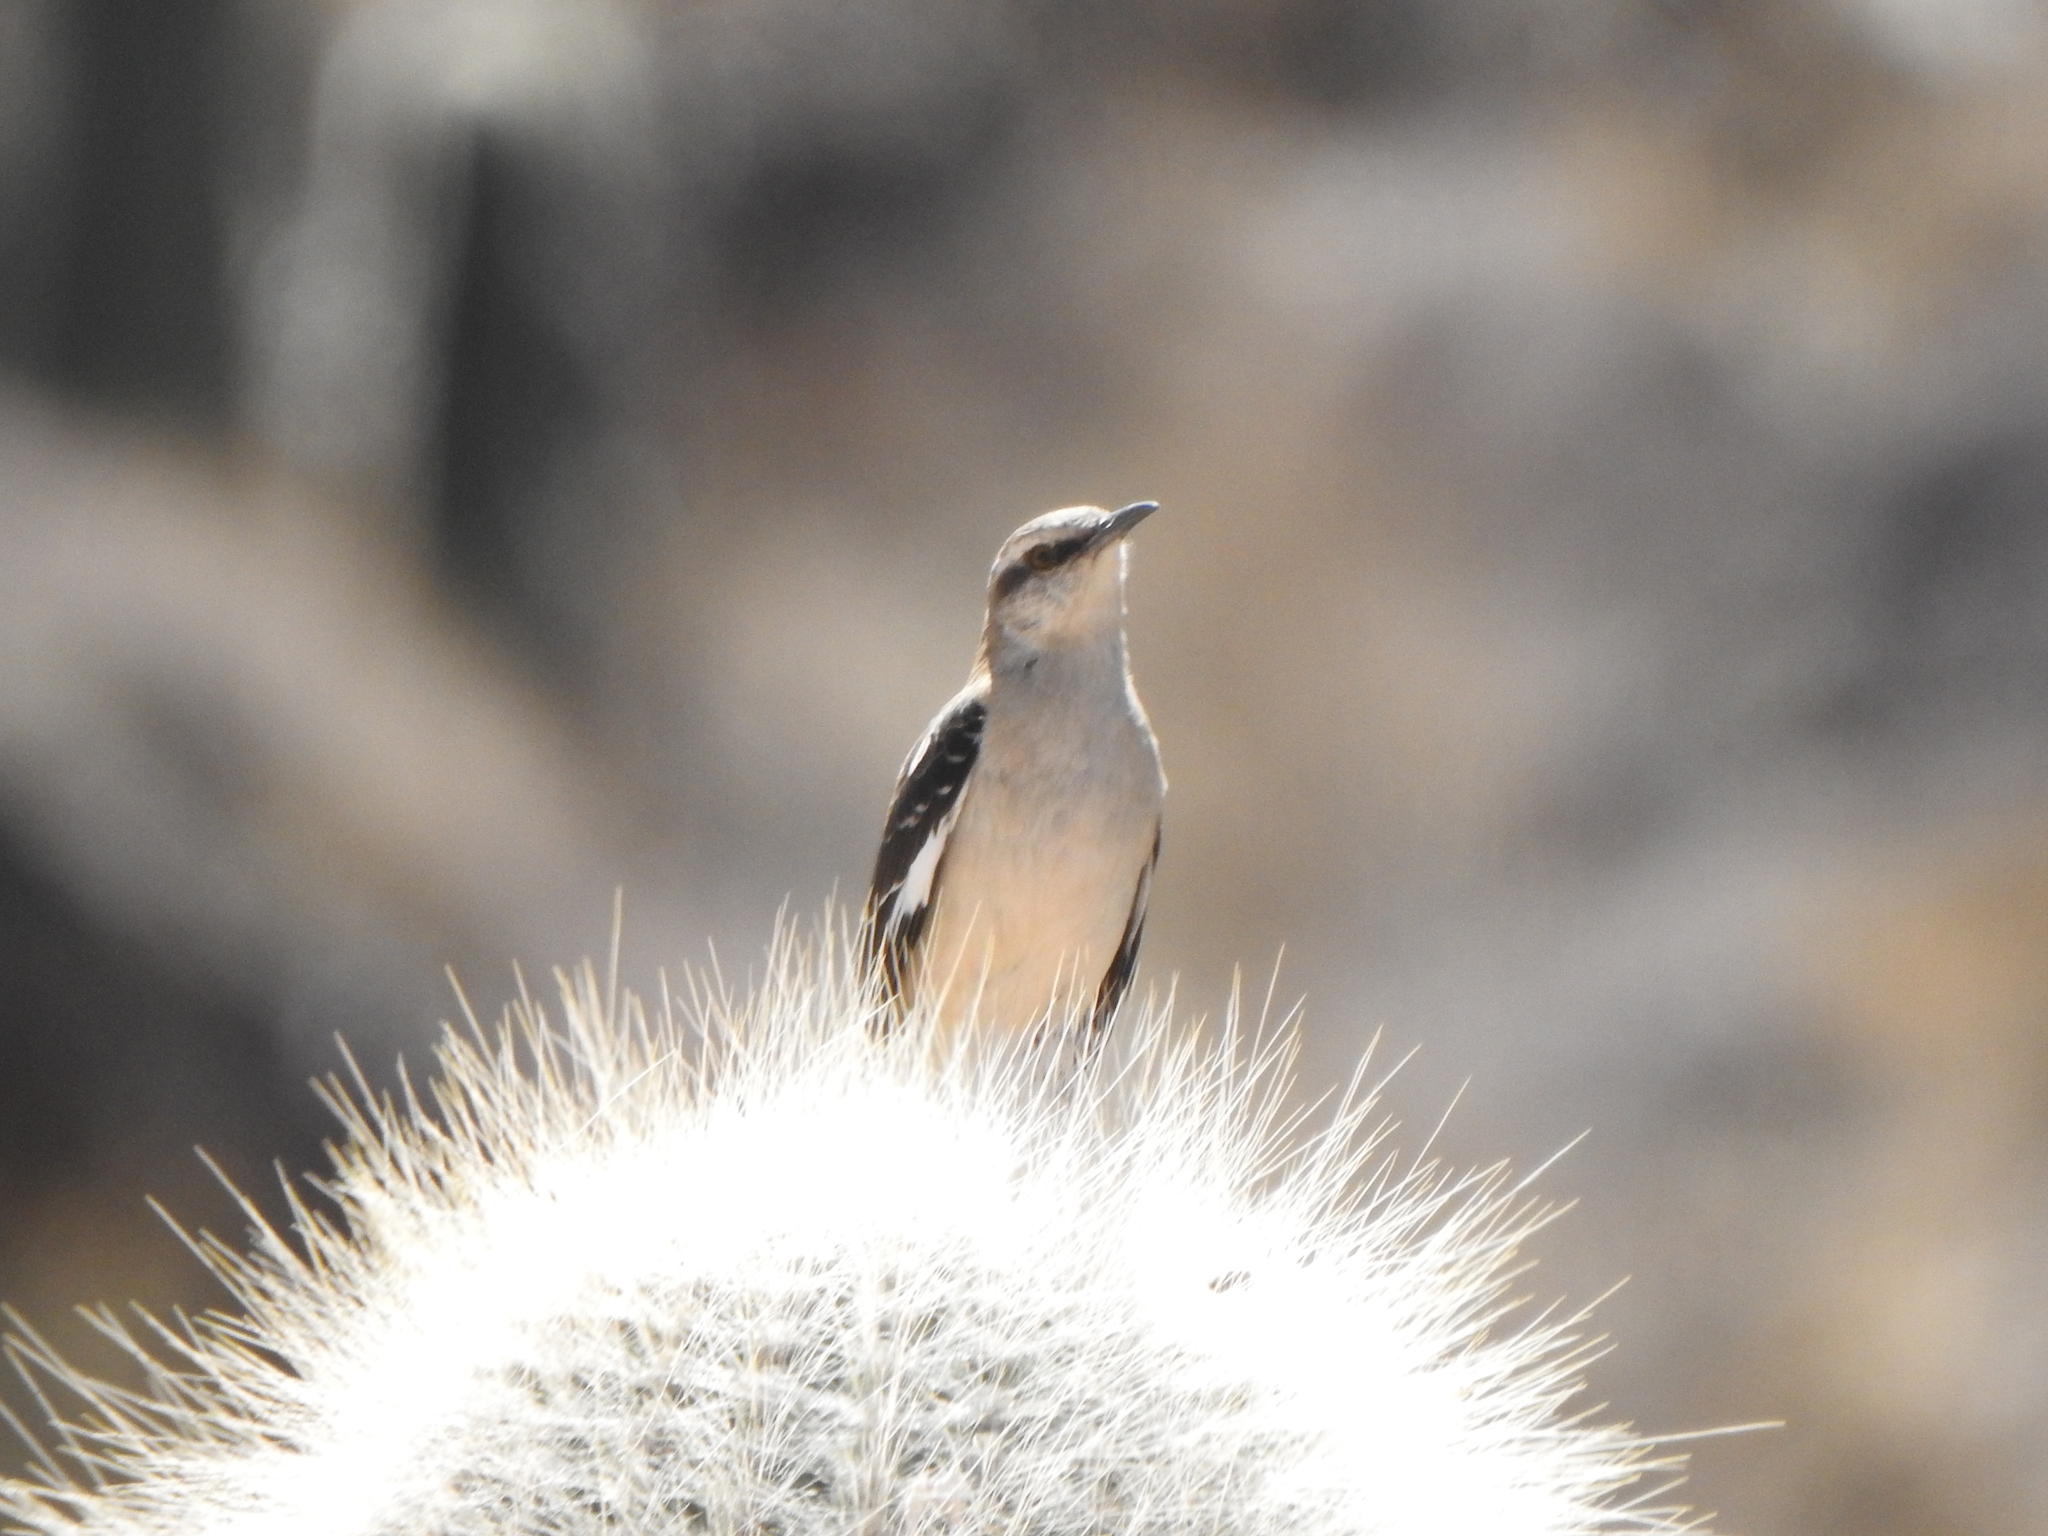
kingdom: Animalia
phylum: Chordata
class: Aves
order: Passeriformes
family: Mimidae
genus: Mimus
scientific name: Mimus dorsalis
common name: Brown-backed mockingbird
